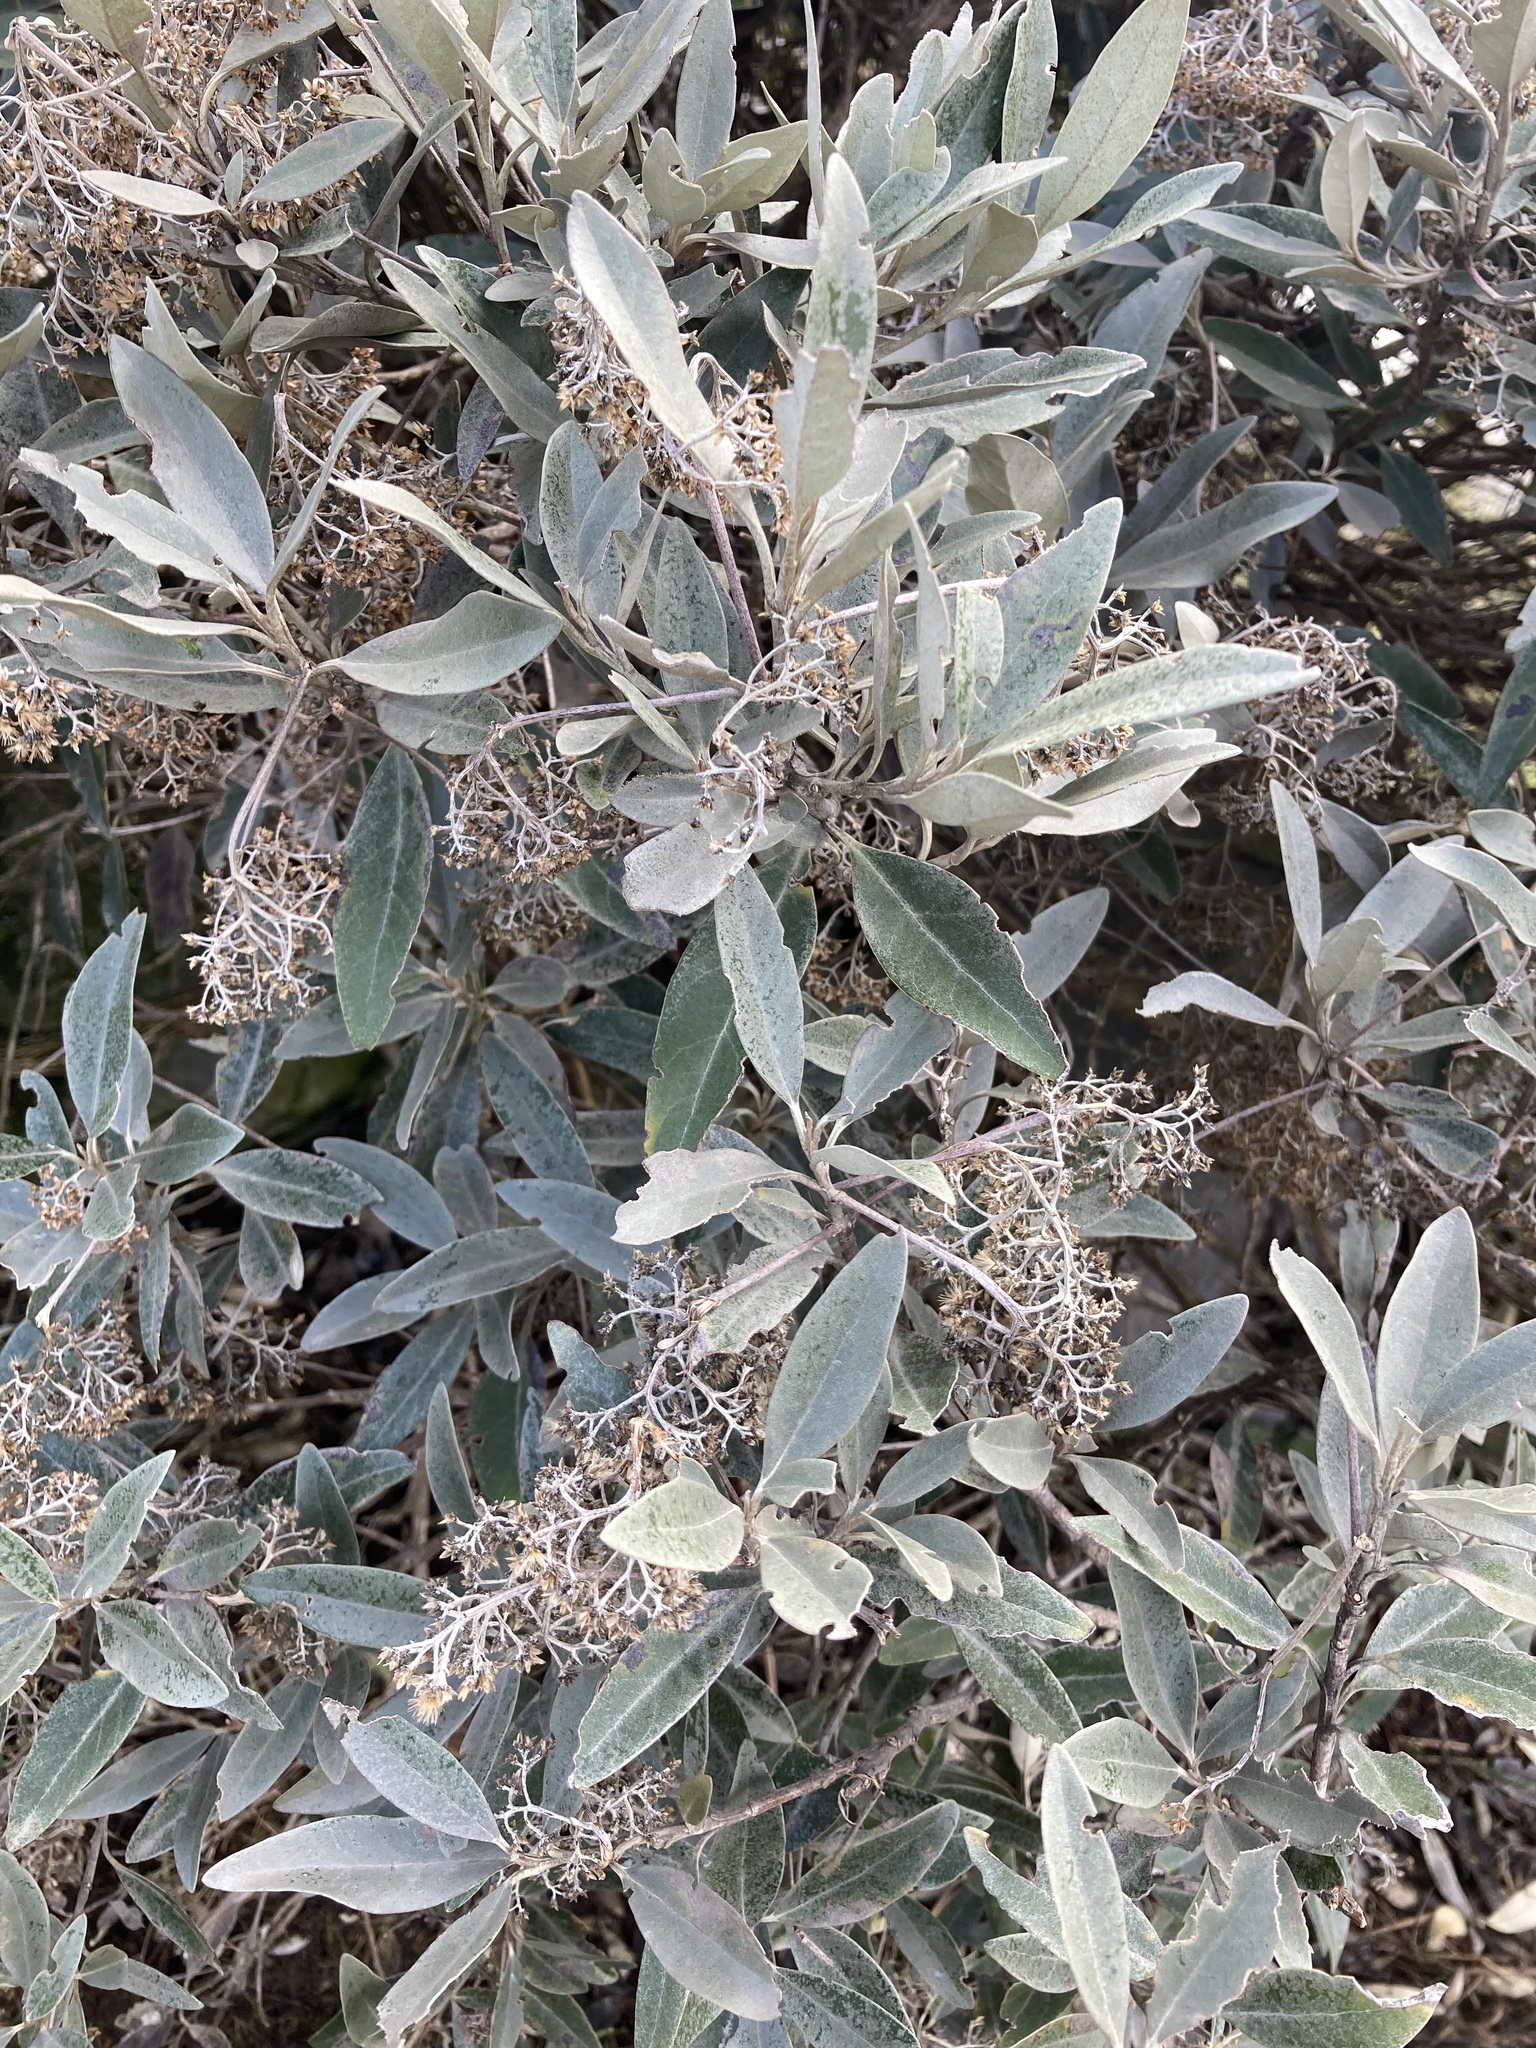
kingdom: Plantae
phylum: Tracheophyta
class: Magnoliopsida
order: Asterales
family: Asteraceae
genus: Olearia
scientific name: Olearia avicenniifolia
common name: Mangrove-leaf daisybush
